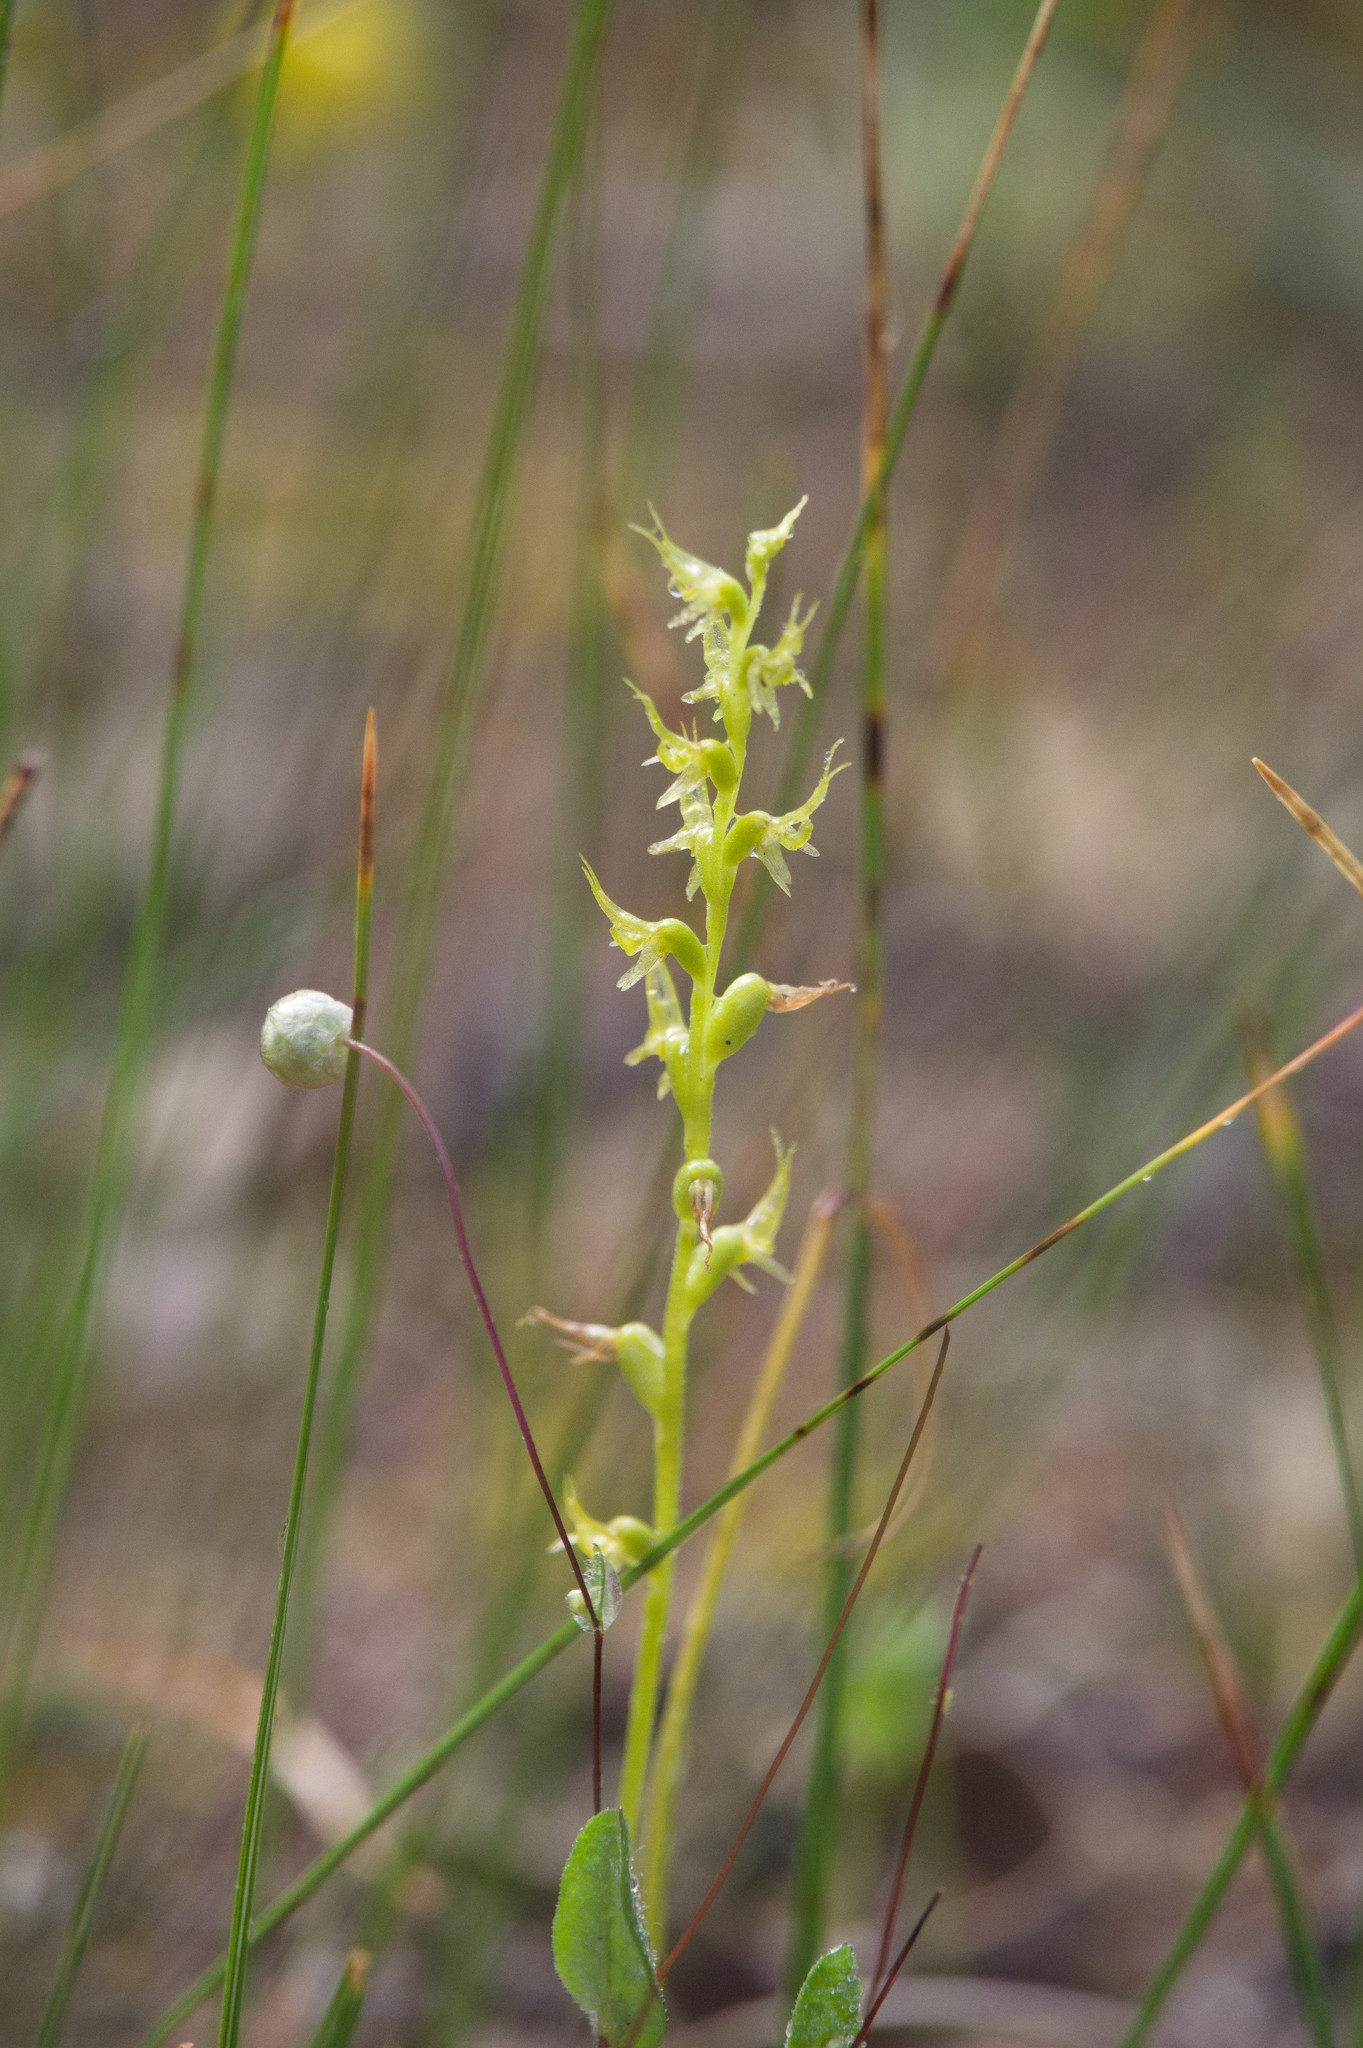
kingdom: Plantae
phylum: Tracheophyta
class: Liliopsida
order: Asparagales
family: Orchidaceae
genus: Prasophyllum
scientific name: Prasophyllum gracile
